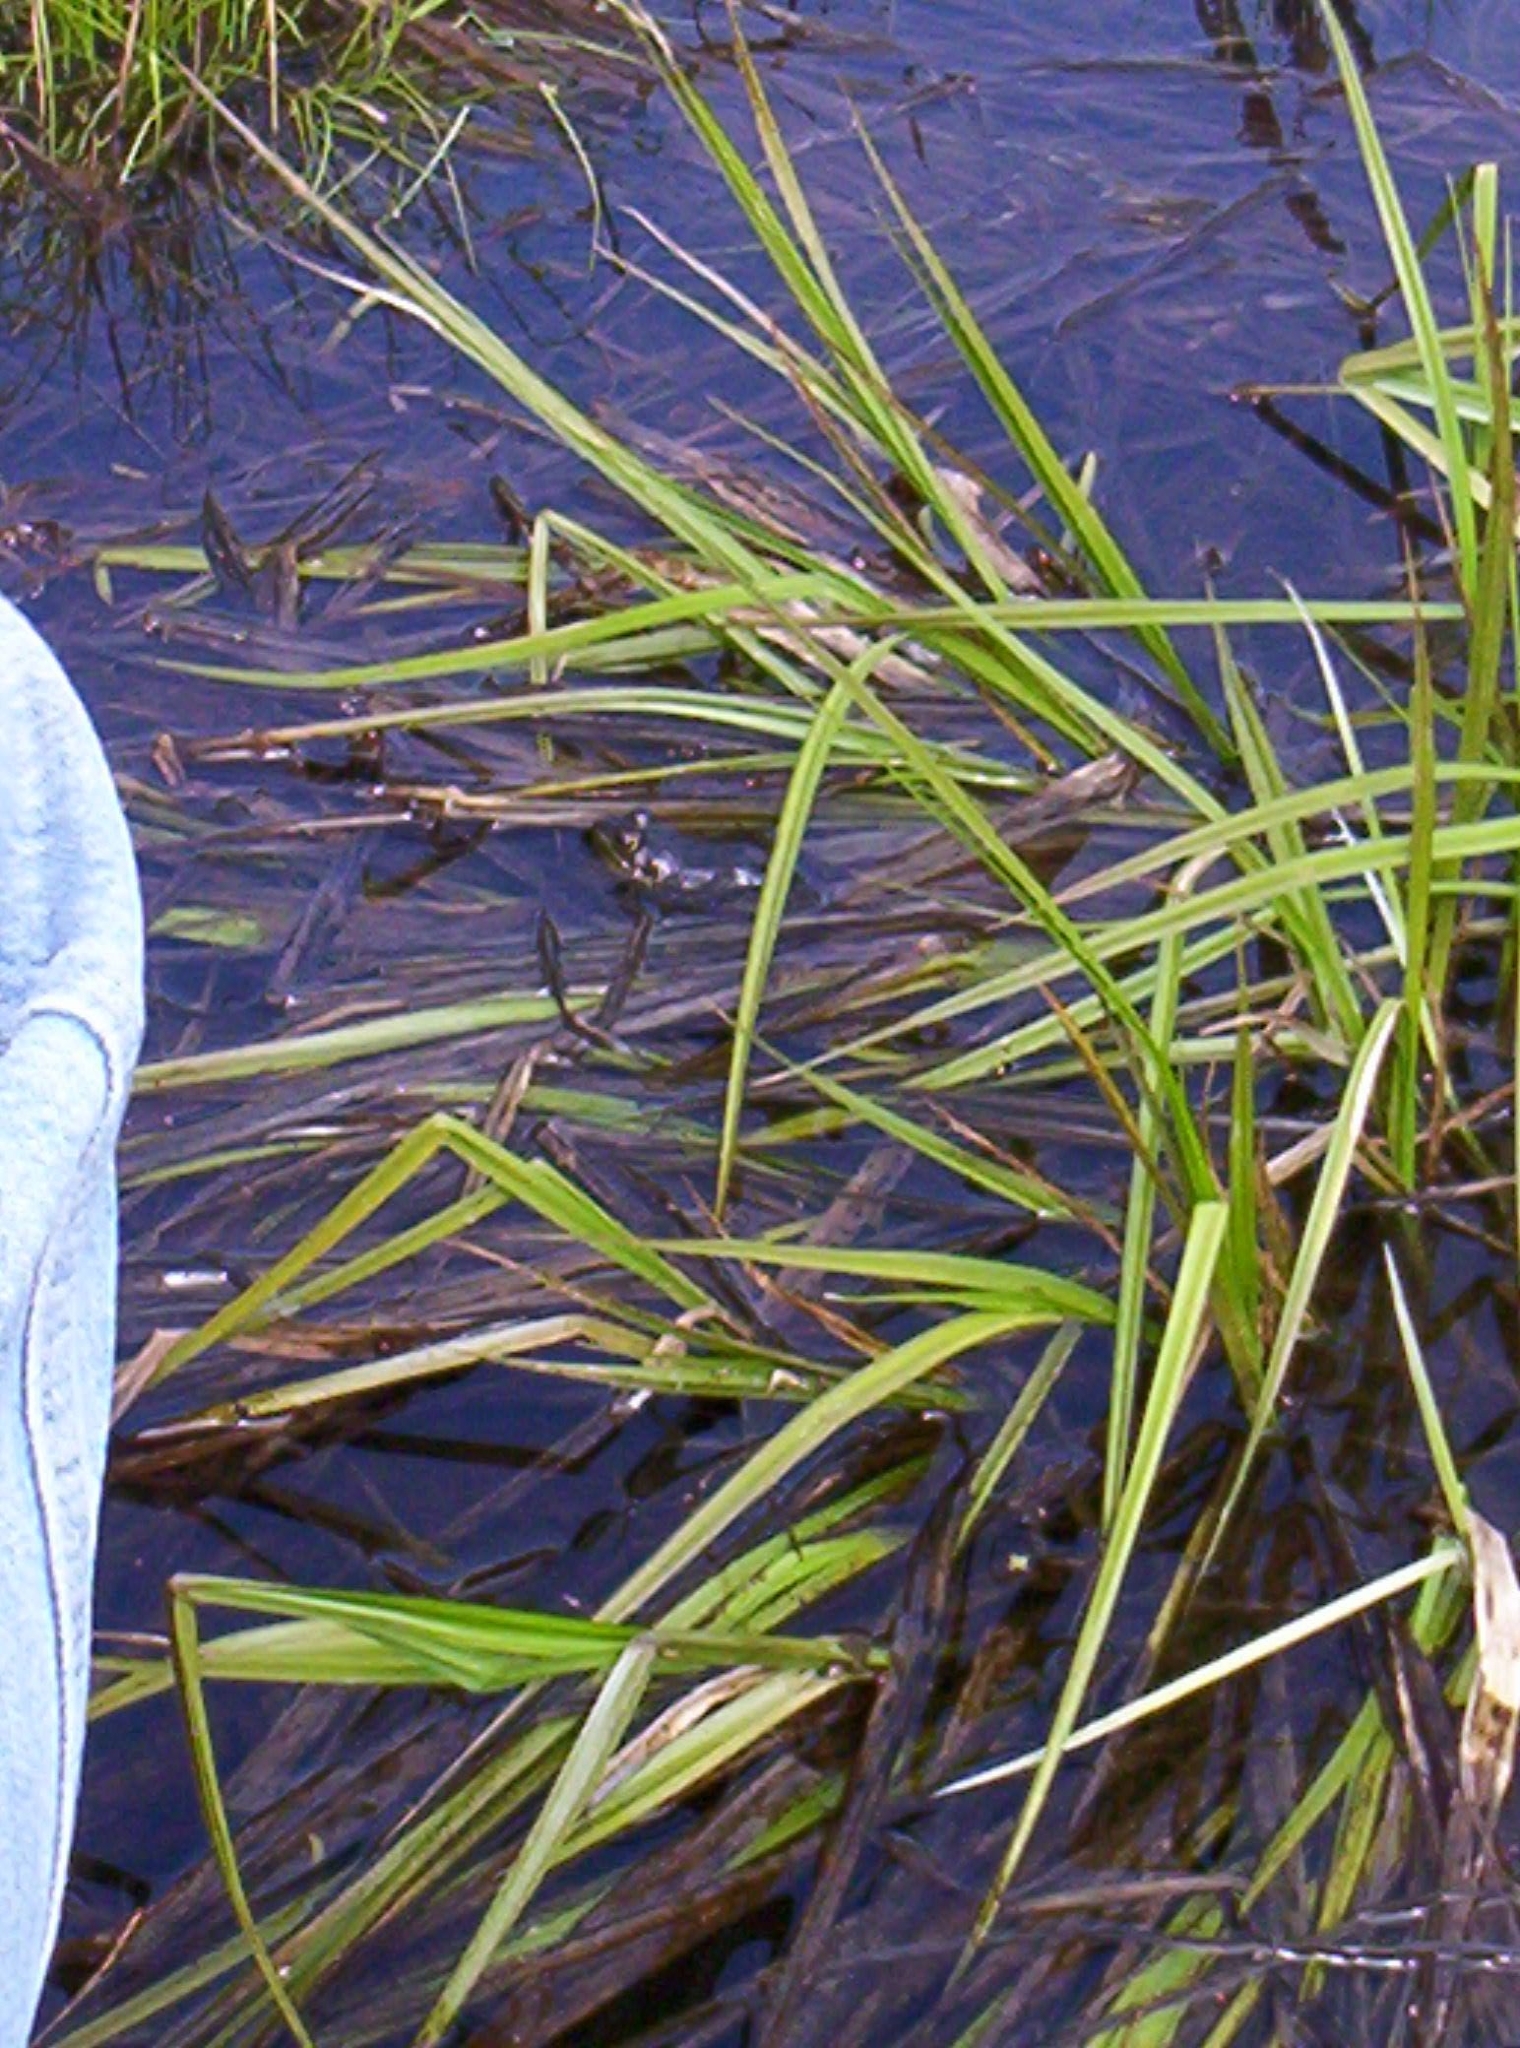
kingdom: Animalia
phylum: Chordata
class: Amphibia
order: Anura
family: Ranidae
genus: Lithobates
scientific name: Lithobates
